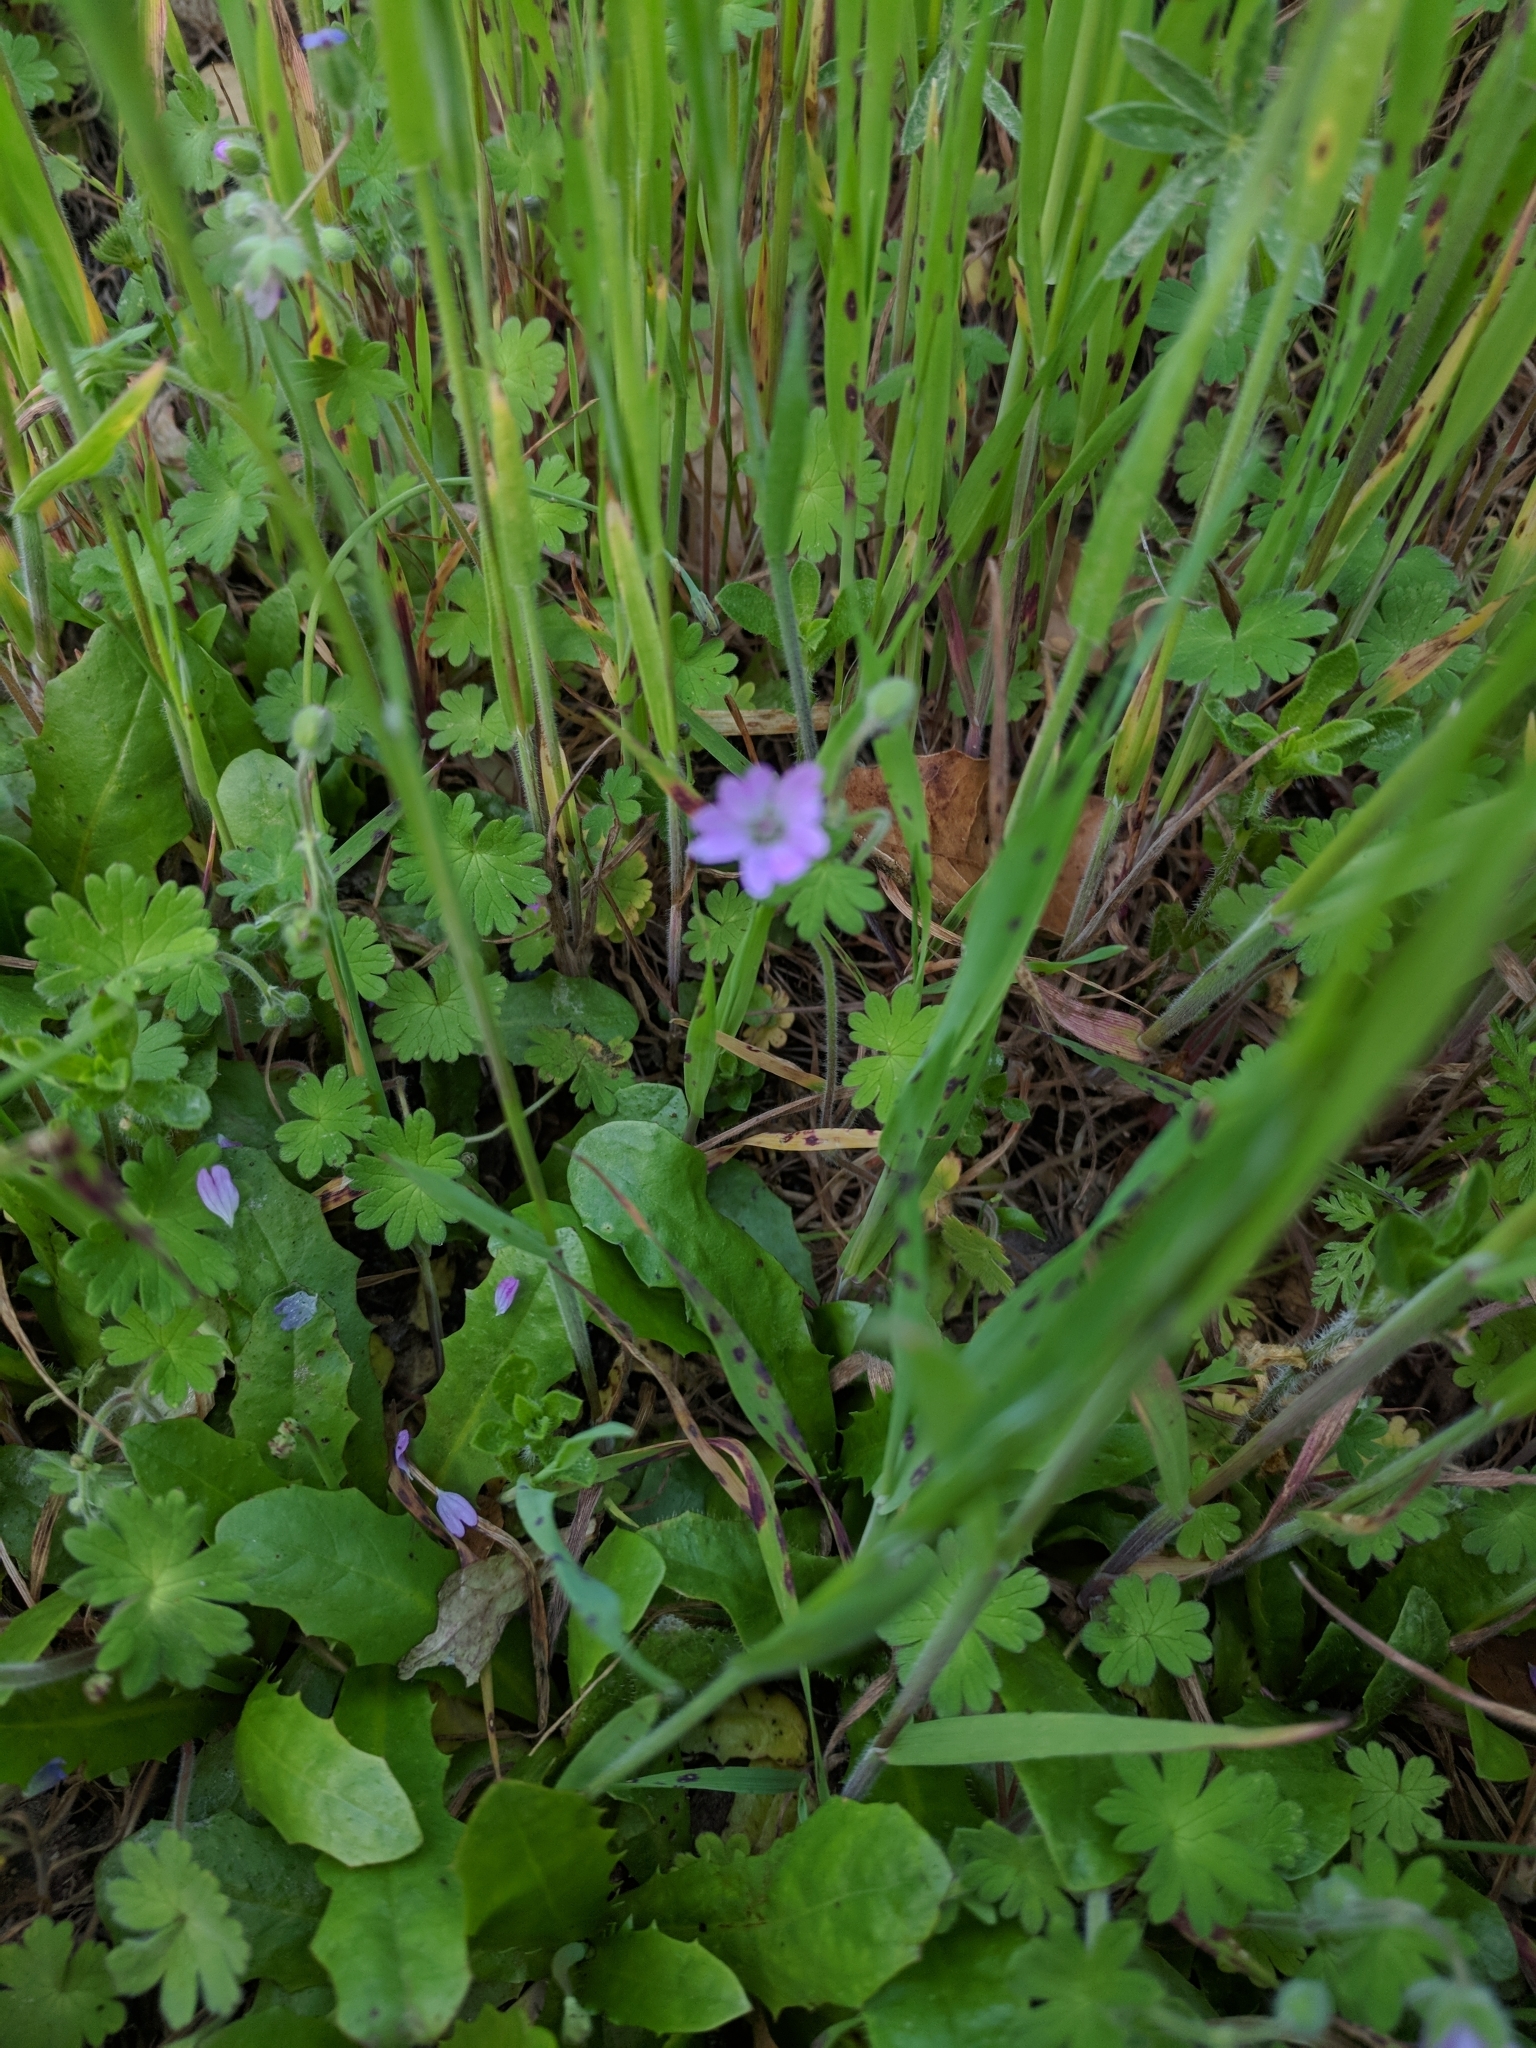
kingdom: Plantae
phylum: Tracheophyta
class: Magnoliopsida
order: Geraniales
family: Geraniaceae
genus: Geranium
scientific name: Geranium molle
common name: Dove's-foot crane's-bill
